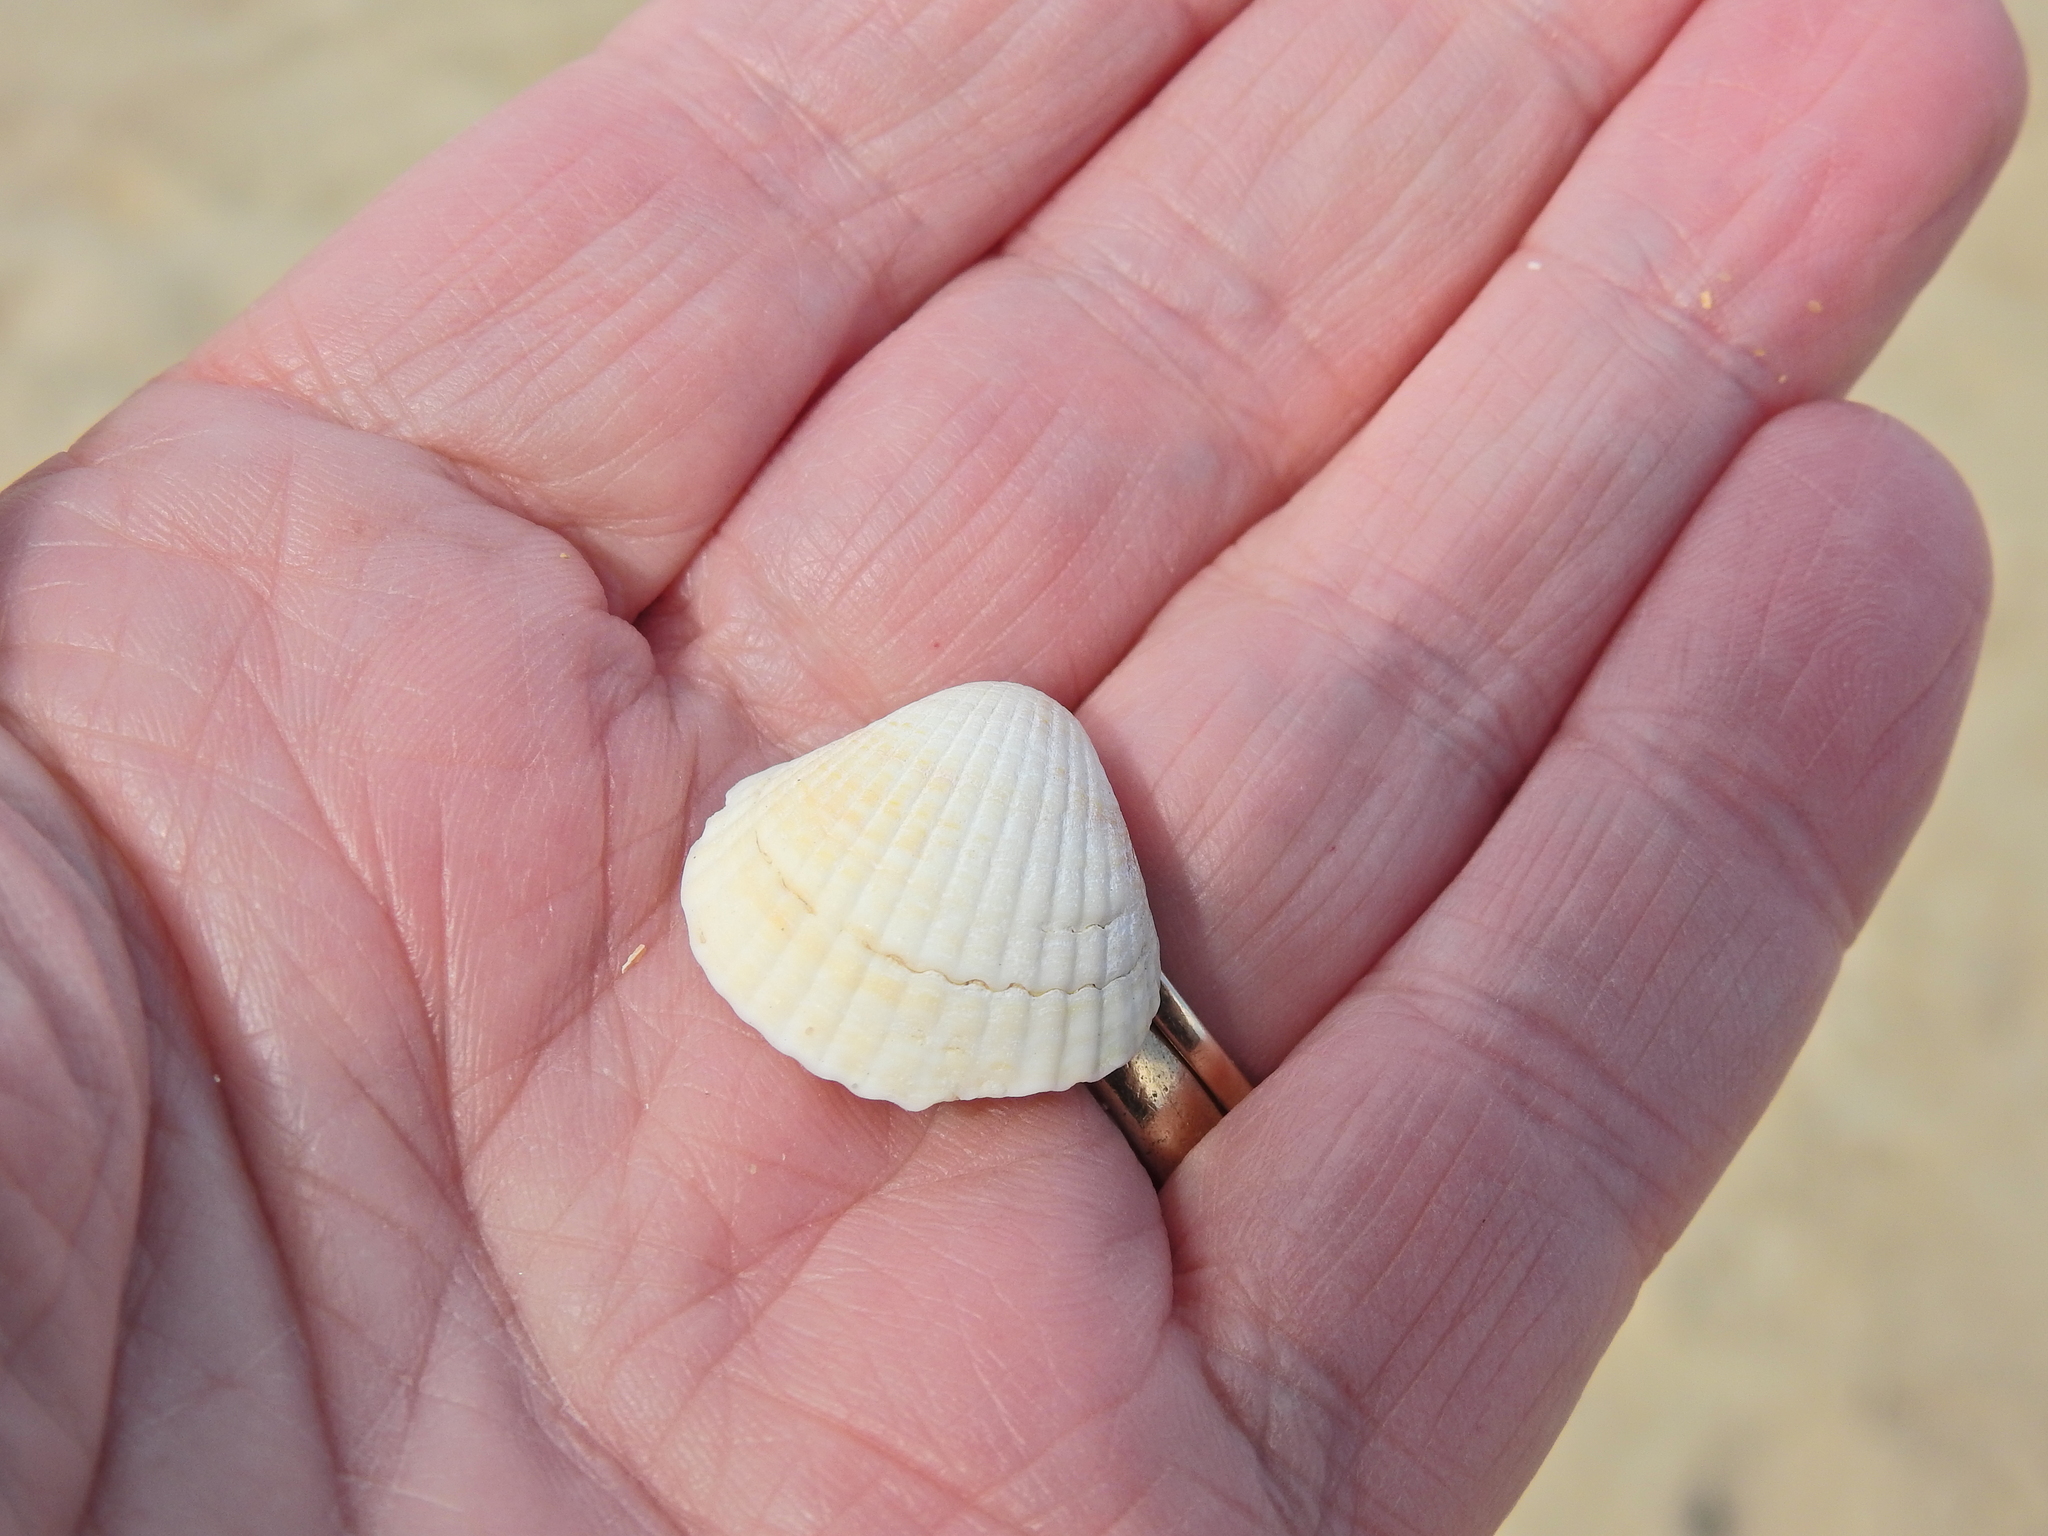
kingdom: Animalia
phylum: Mollusca
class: Bivalvia
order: Cardiida
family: Cardiidae
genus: Cerastoderma
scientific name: Cerastoderma edule
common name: Common cockle
